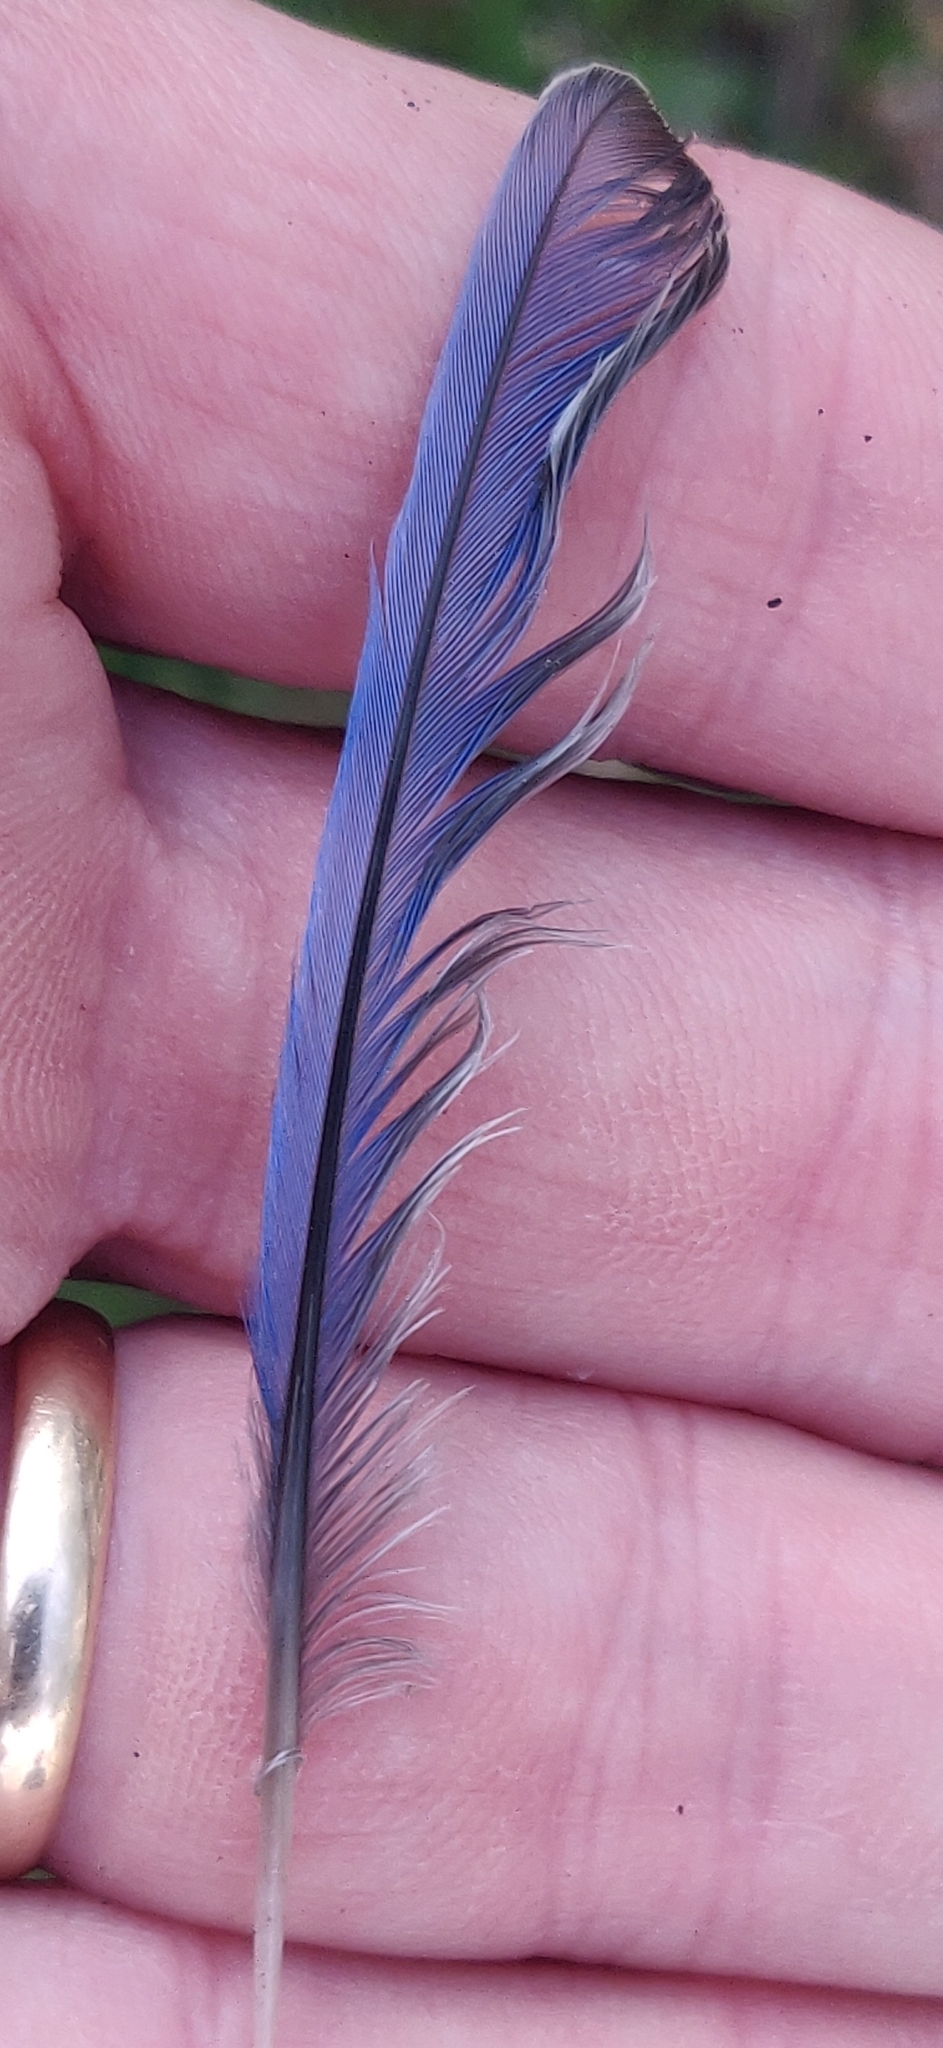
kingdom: Animalia
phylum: Chordata
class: Aves
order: Passeriformes
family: Turdidae
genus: Sialia
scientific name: Sialia sialis
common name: Eastern bluebird
